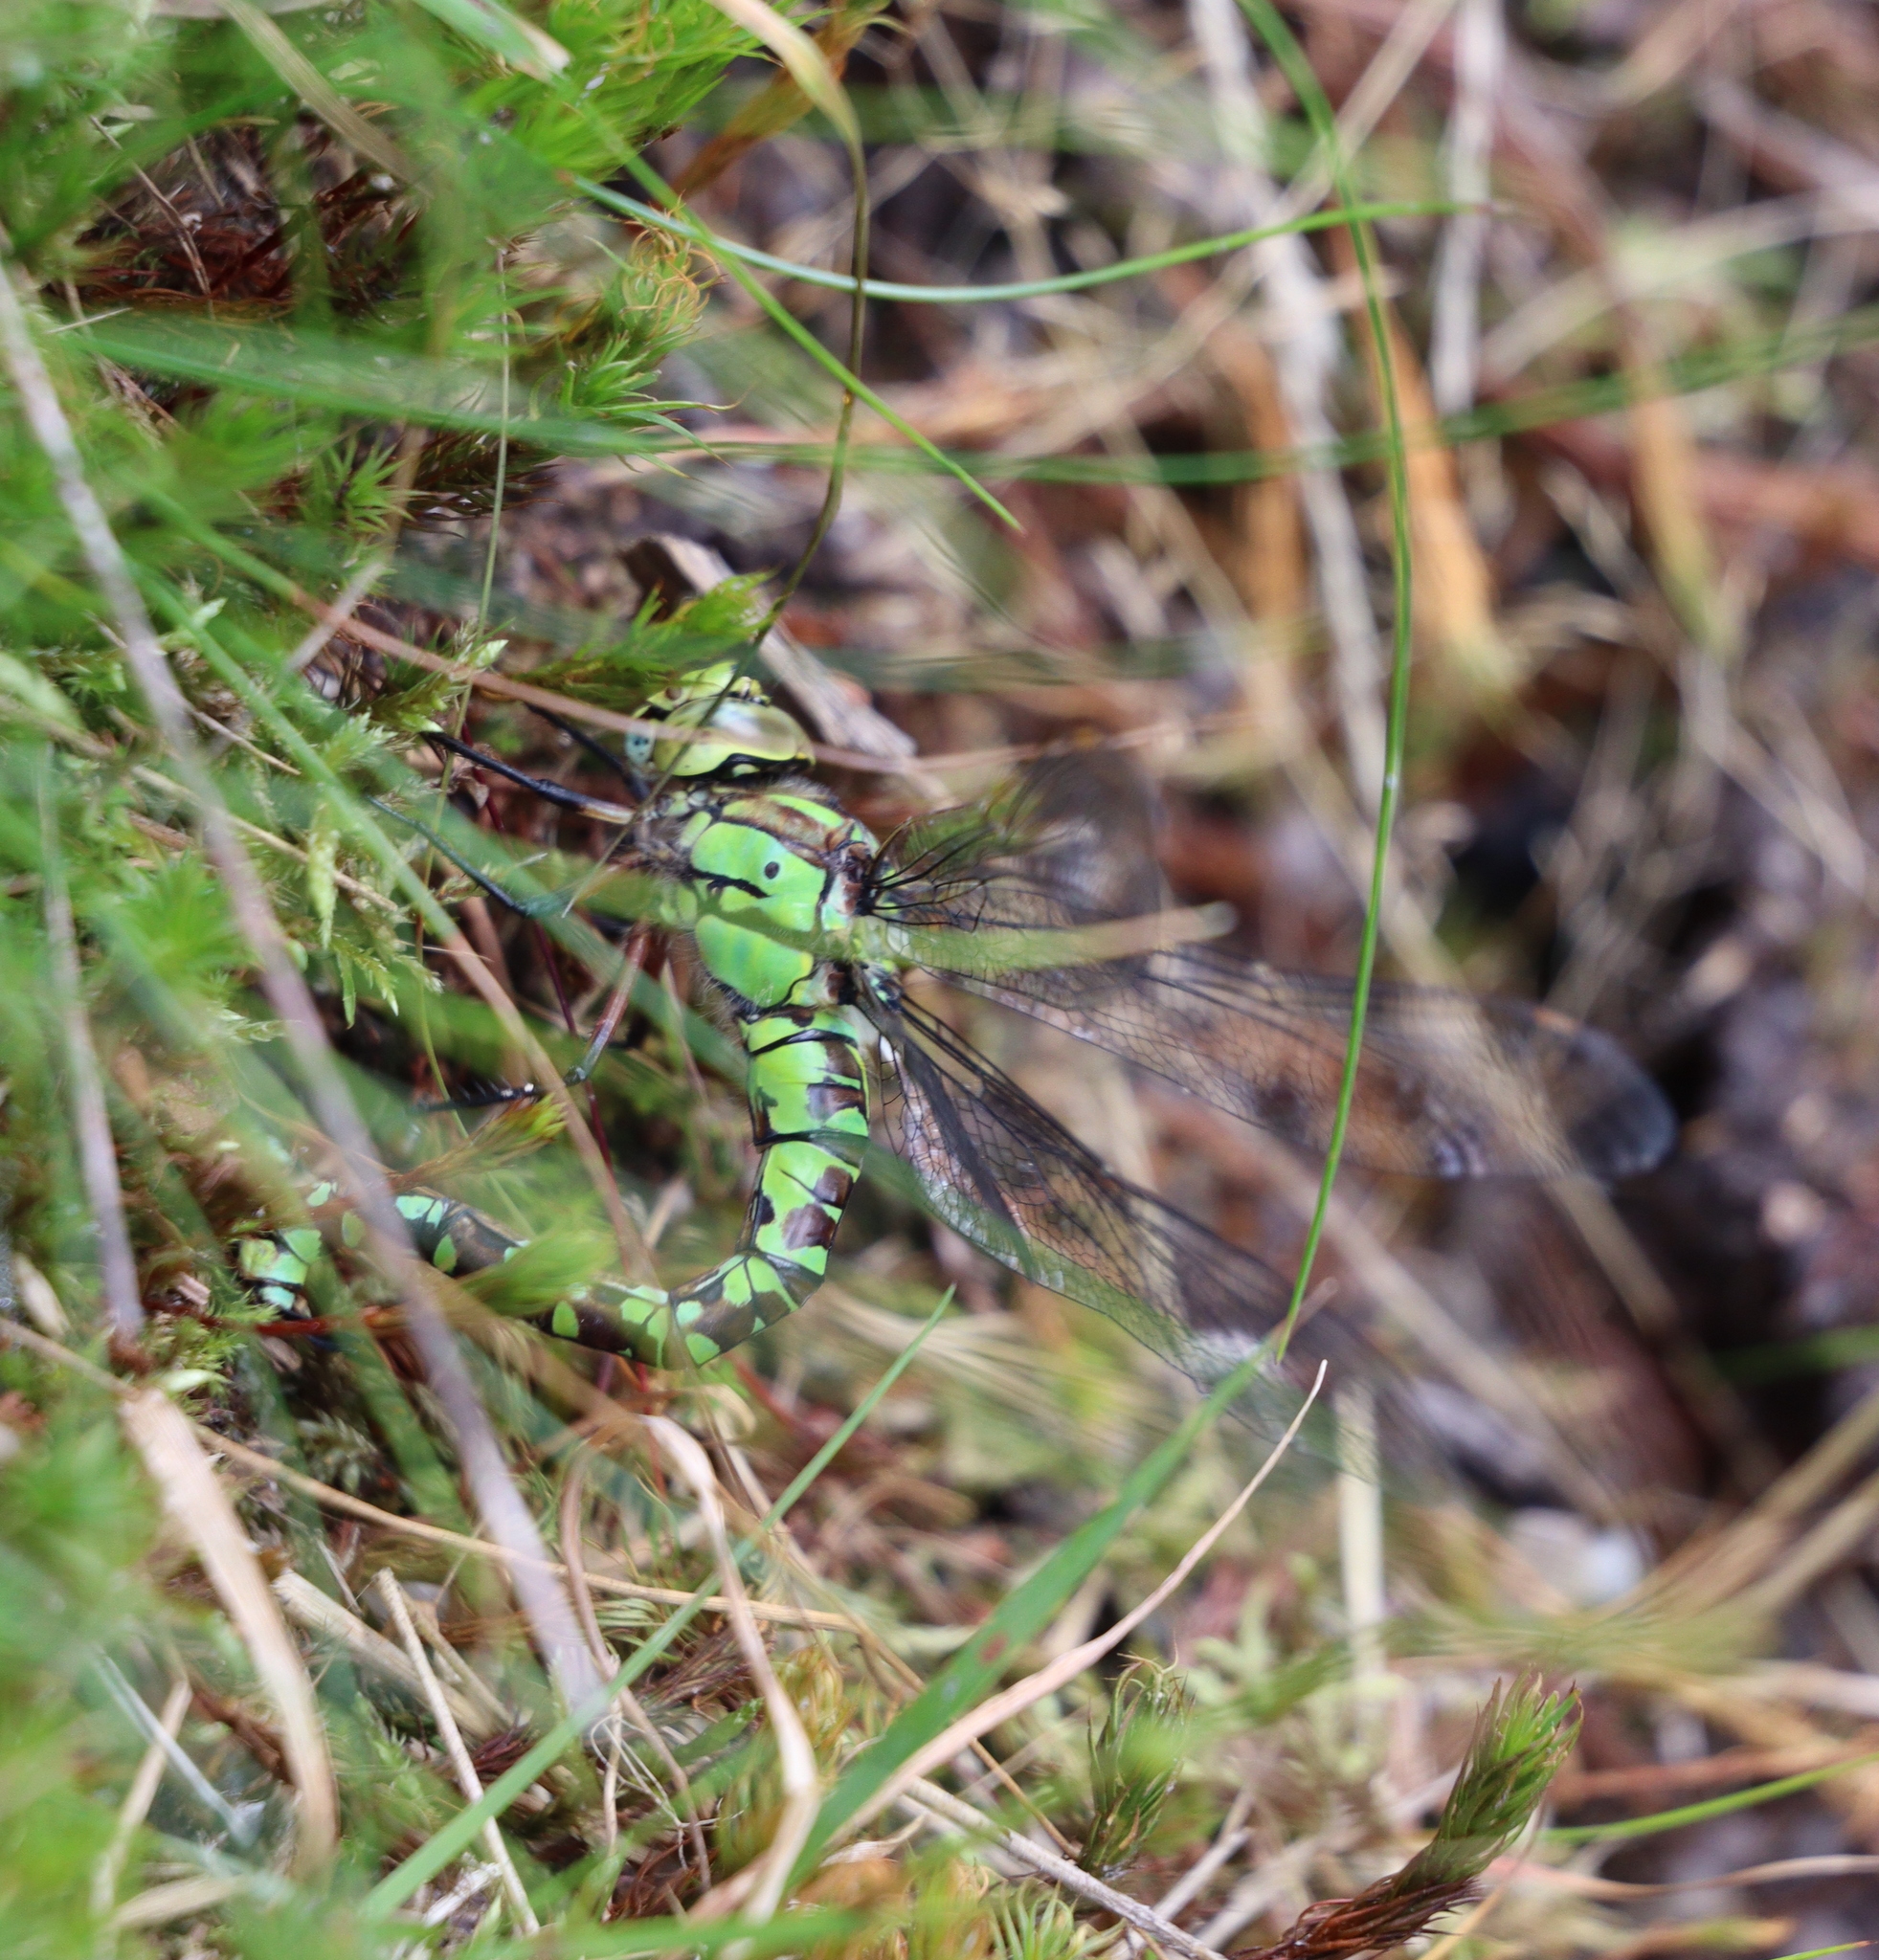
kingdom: Animalia
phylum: Arthropoda
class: Insecta
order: Odonata
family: Aeshnidae
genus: Aeshna
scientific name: Aeshna cyanea
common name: Southern hawker
